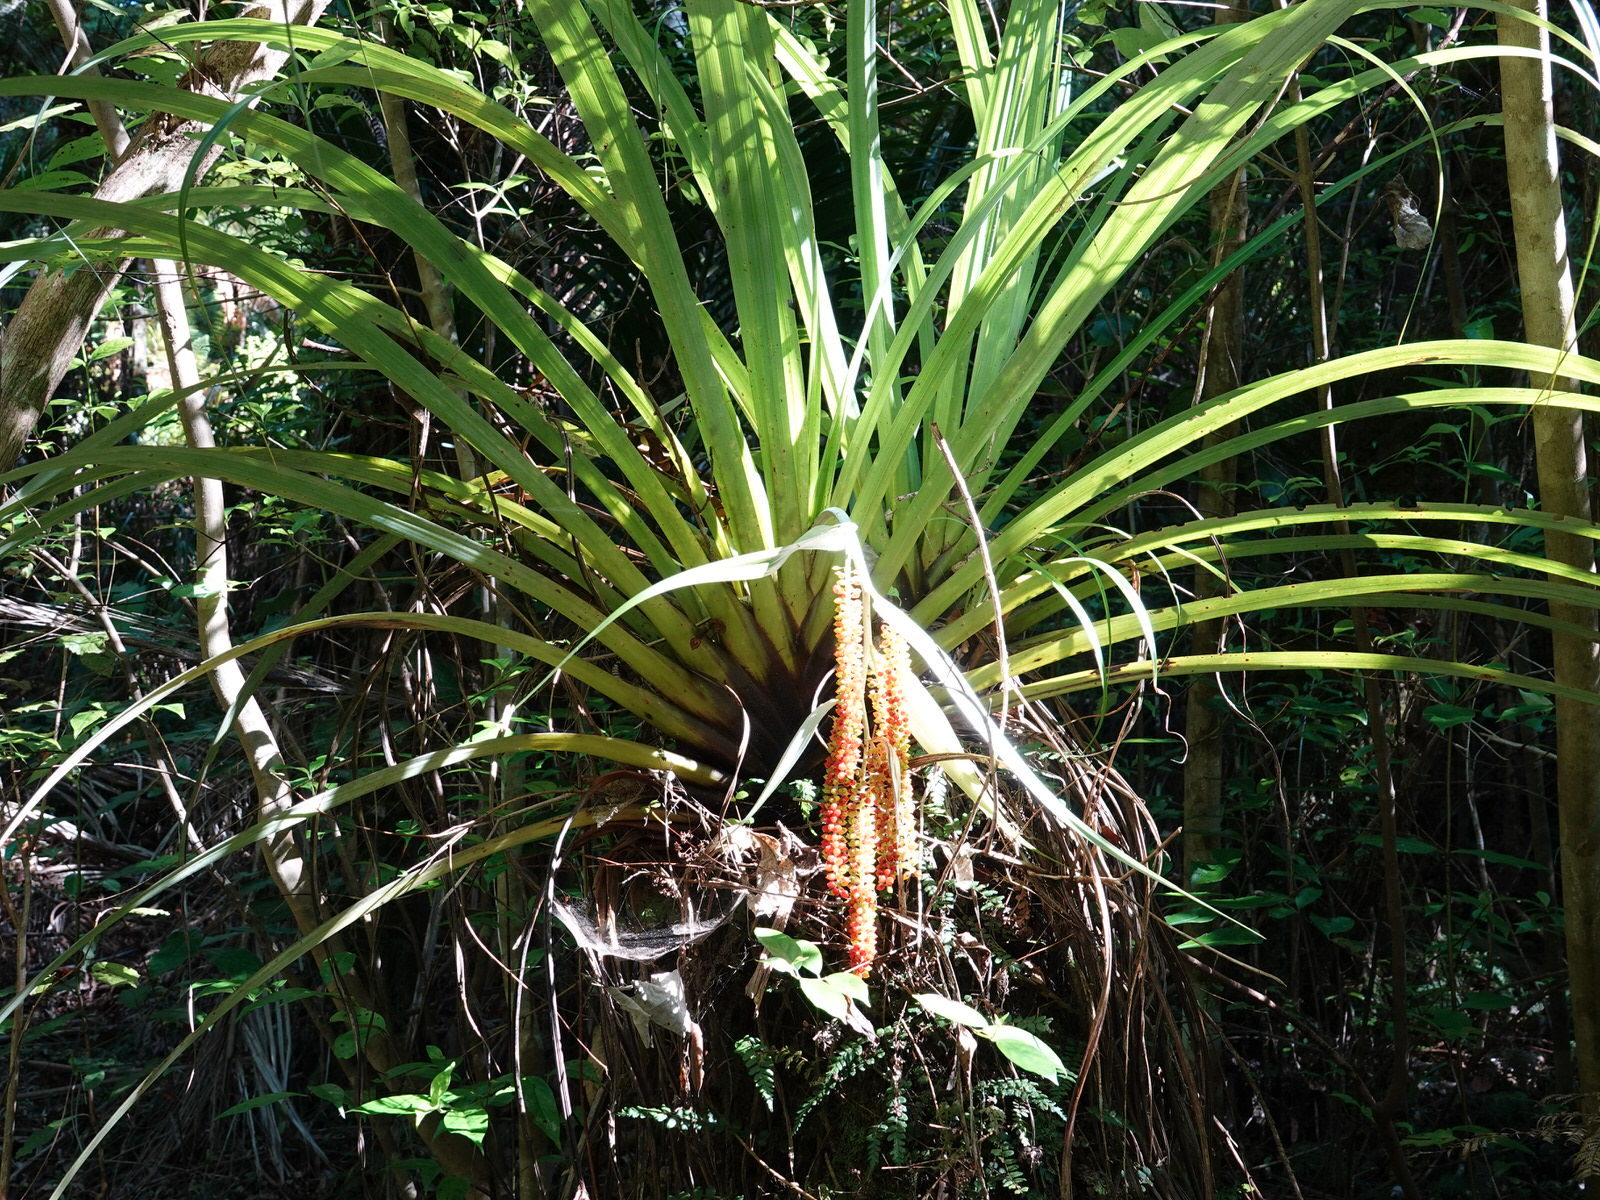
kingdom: Plantae
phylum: Tracheophyta
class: Liliopsida
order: Asparagales
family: Asteliaceae
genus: Astelia
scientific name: Astelia hastata
